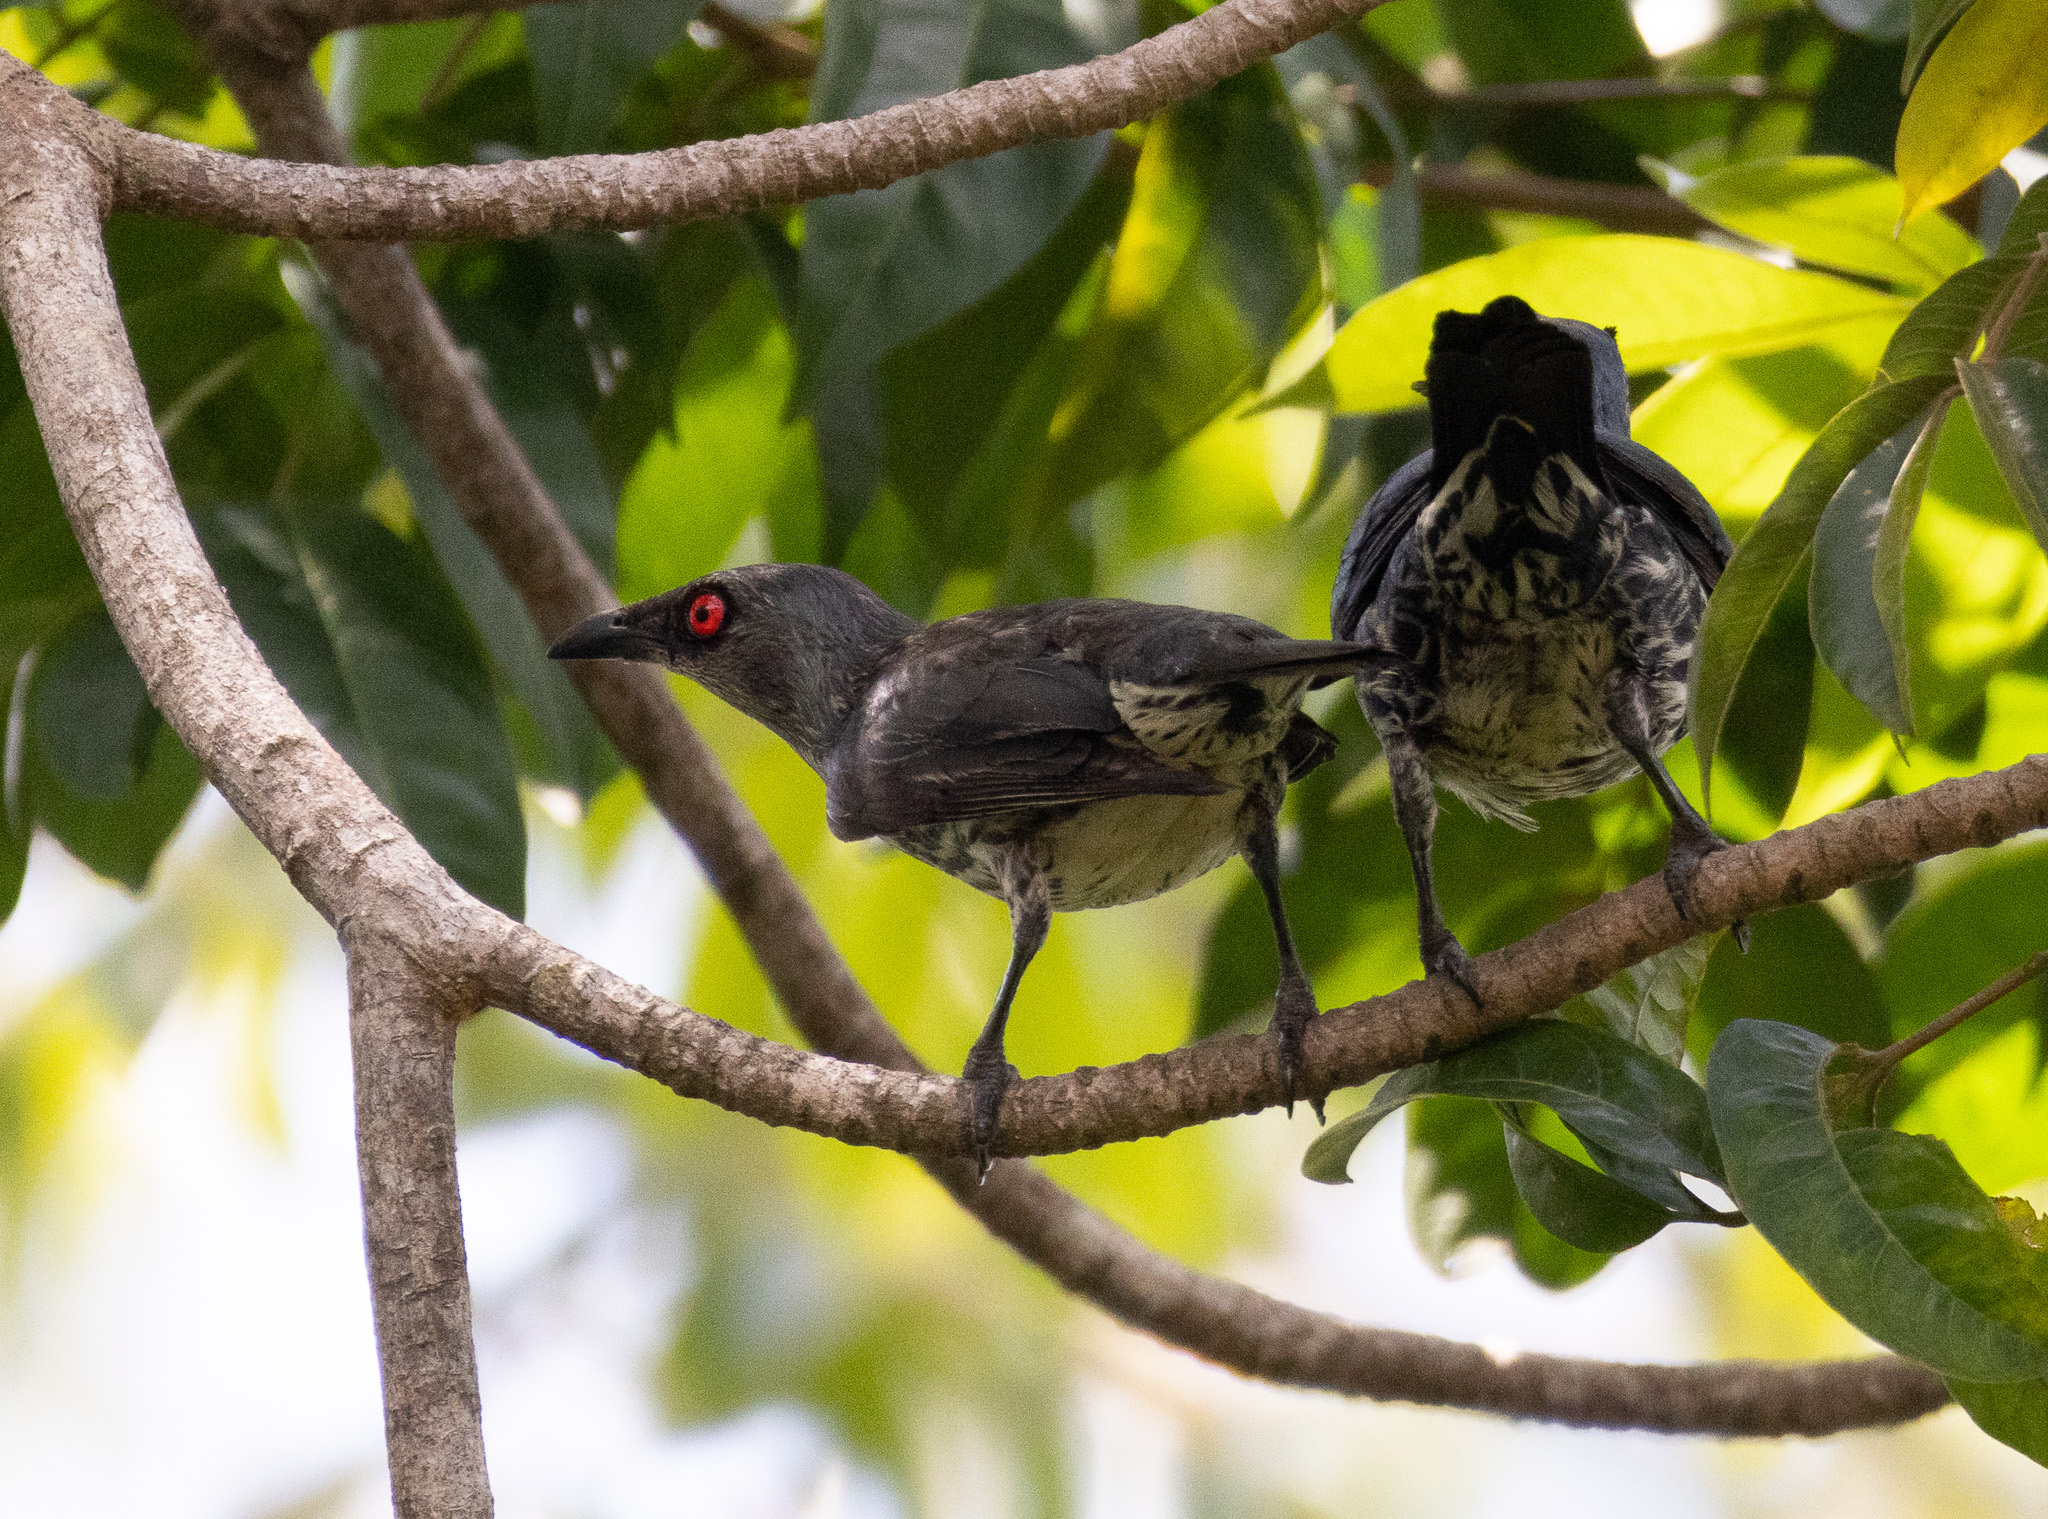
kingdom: Animalia
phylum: Chordata
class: Aves
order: Passeriformes
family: Sturnidae
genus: Aplonis
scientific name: Aplonis panayensis
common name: Asian glossy starling
